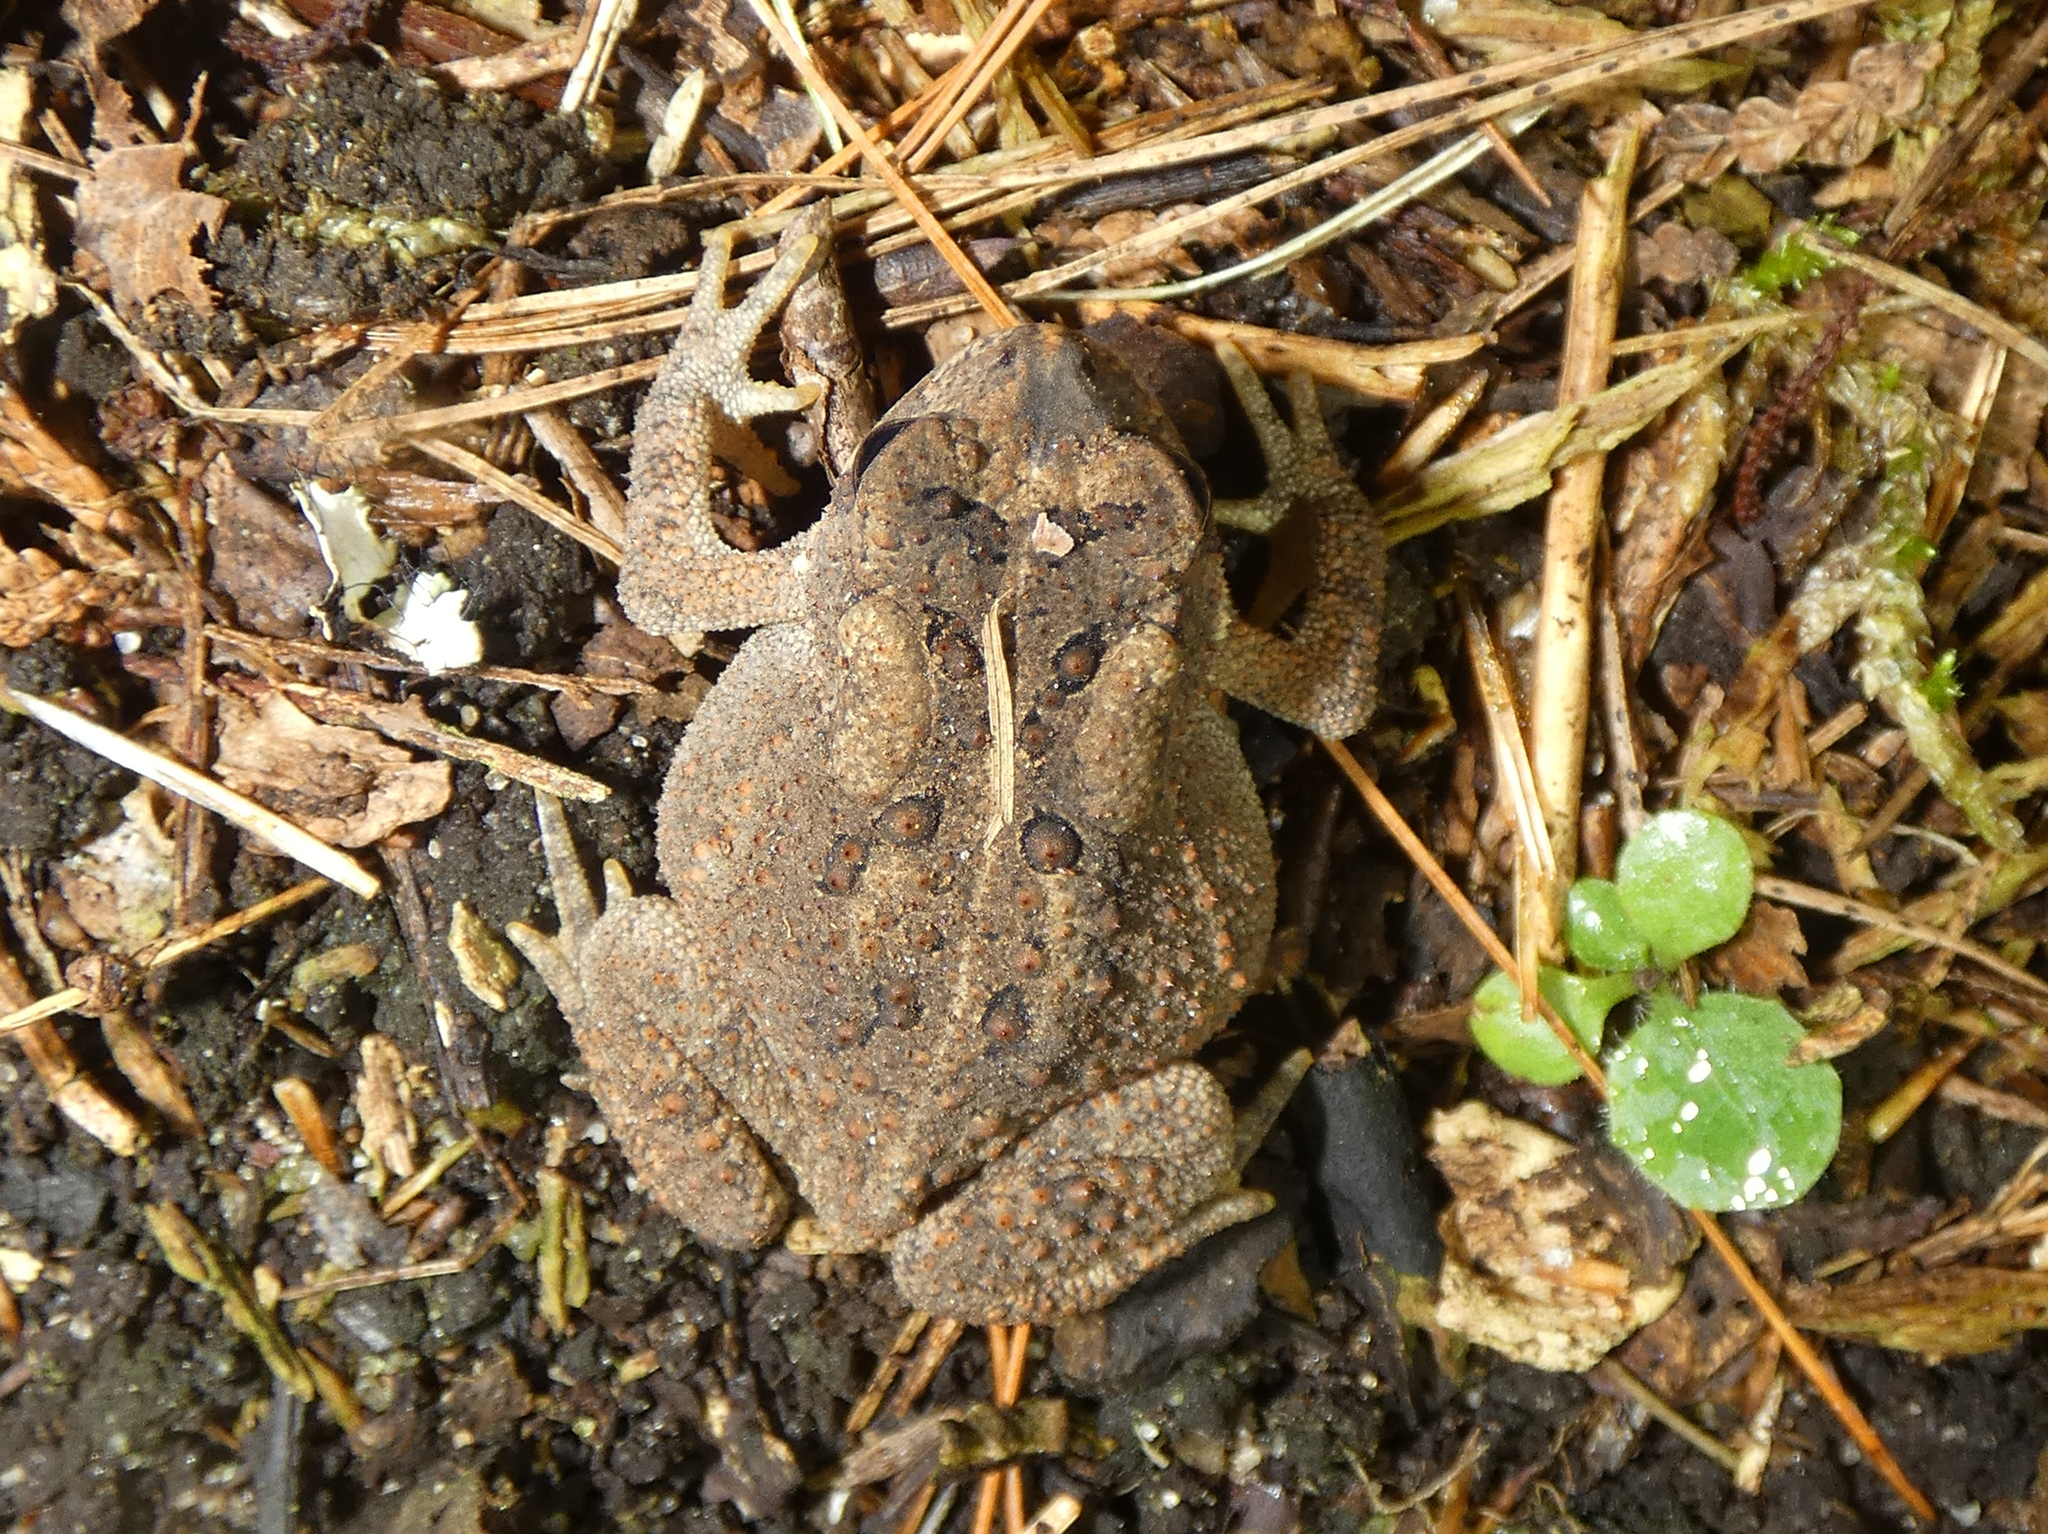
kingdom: Animalia
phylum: Chordata
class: Amphibia
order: Anura
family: Bufonidae
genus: Anaxyrus
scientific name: Anaxyrus americanus
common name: American toad
